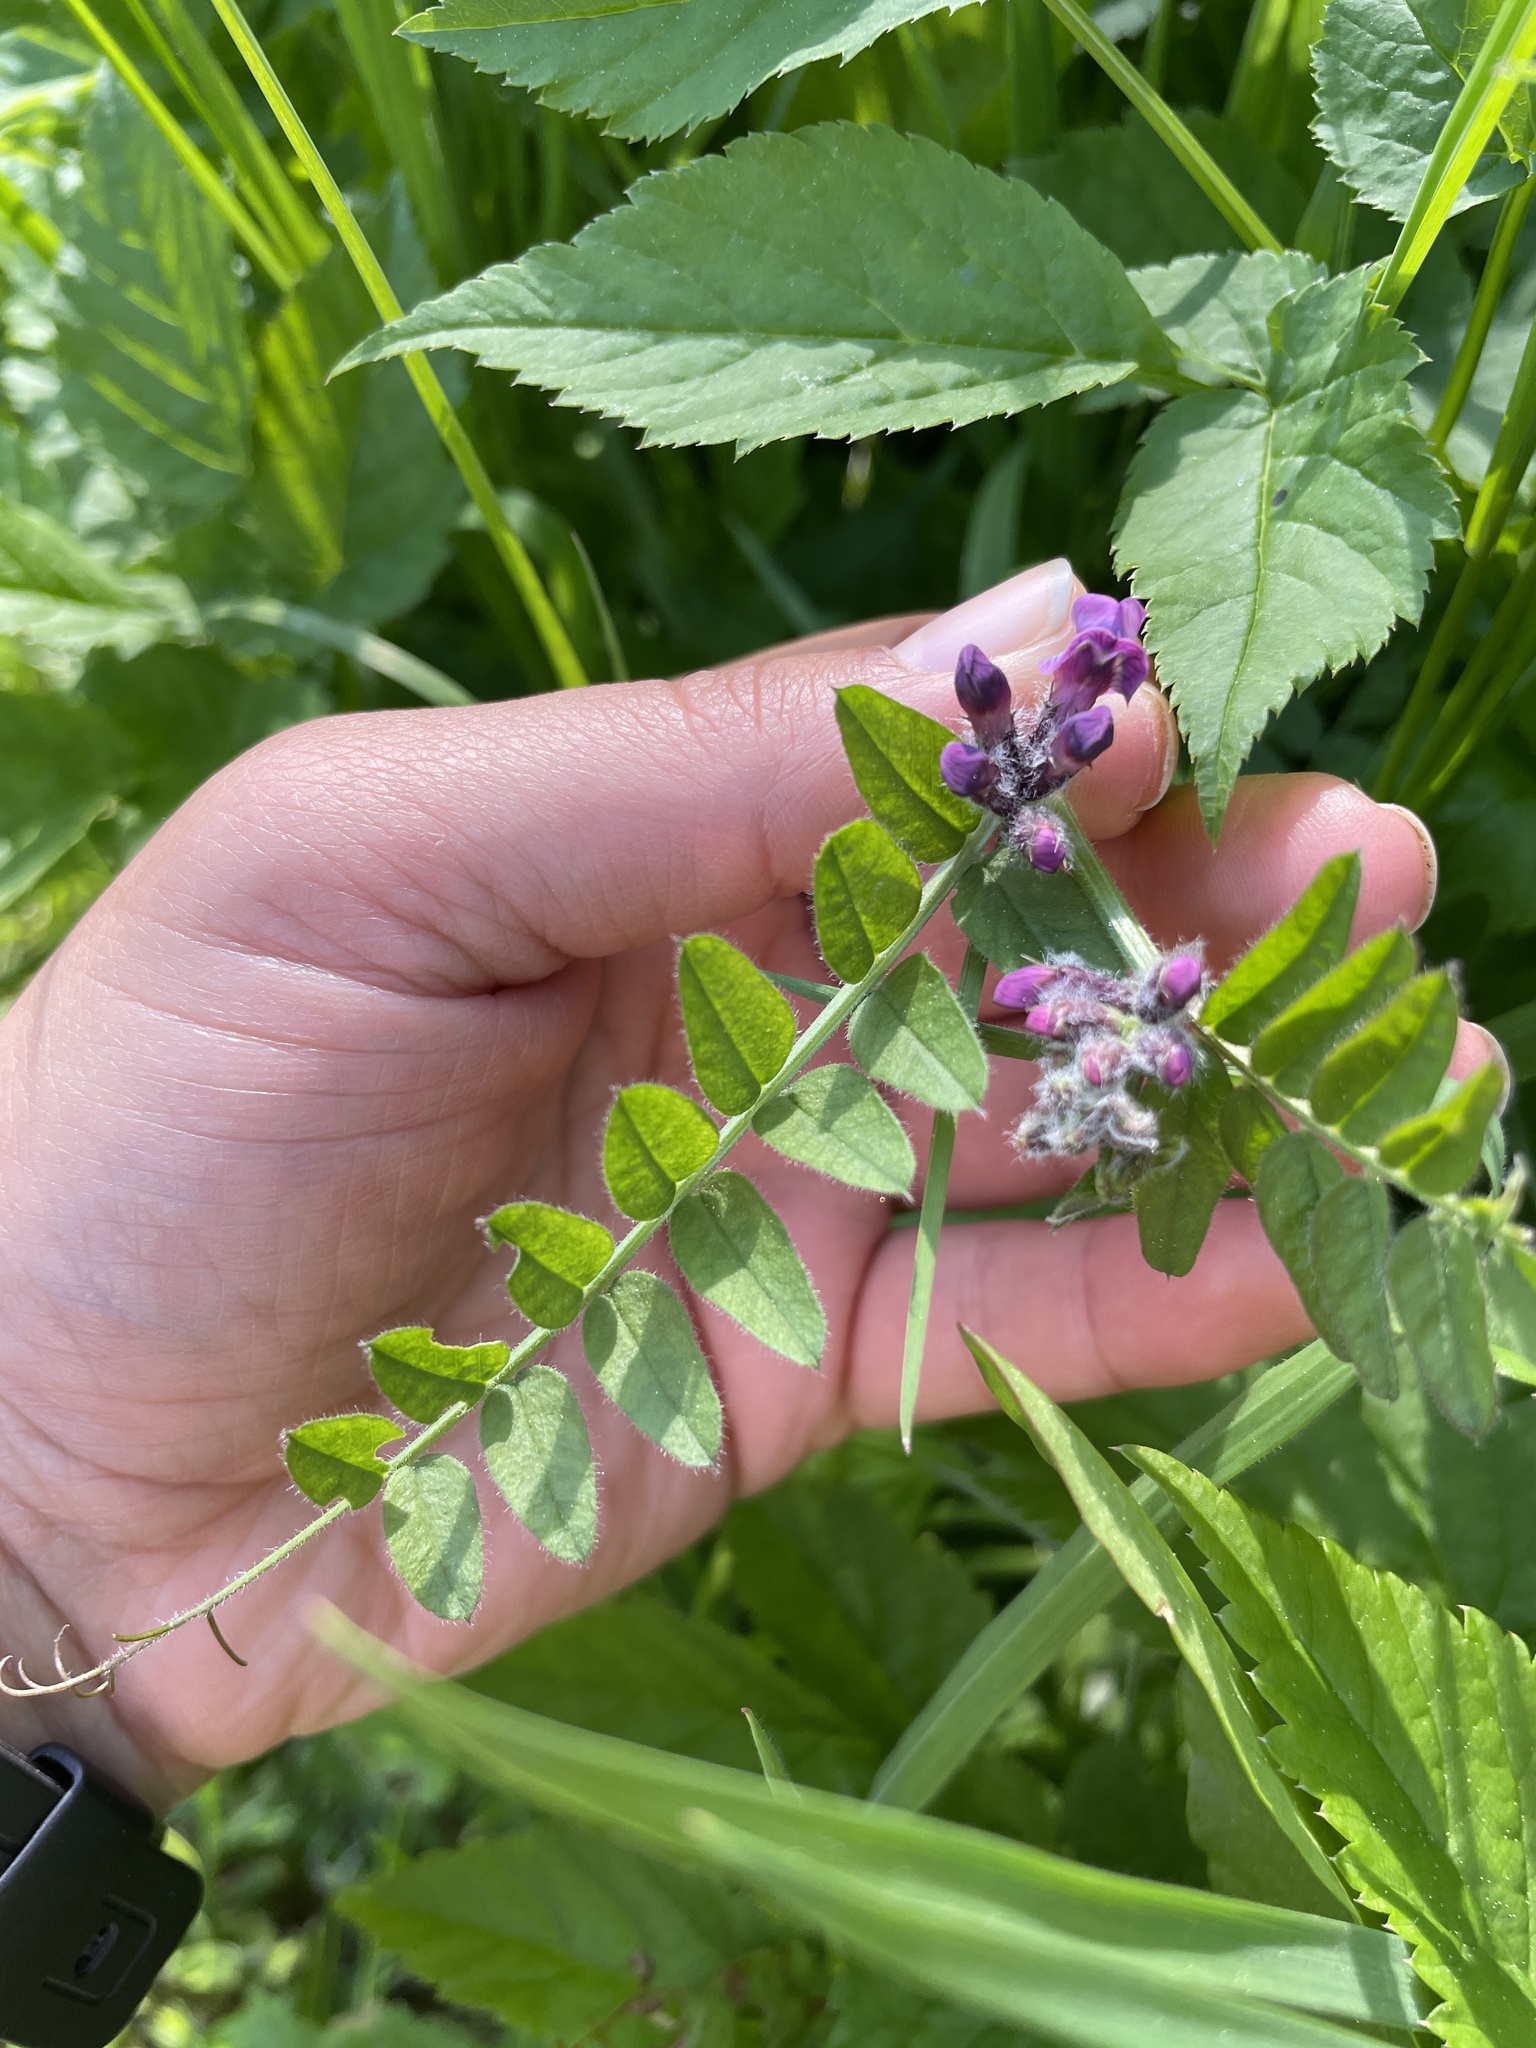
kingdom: Plantae
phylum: Tracheophyta
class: Magnoliopsida
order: Fabales
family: Fabaceae
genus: Vicia
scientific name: Vicia sepium
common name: Bush vetch
